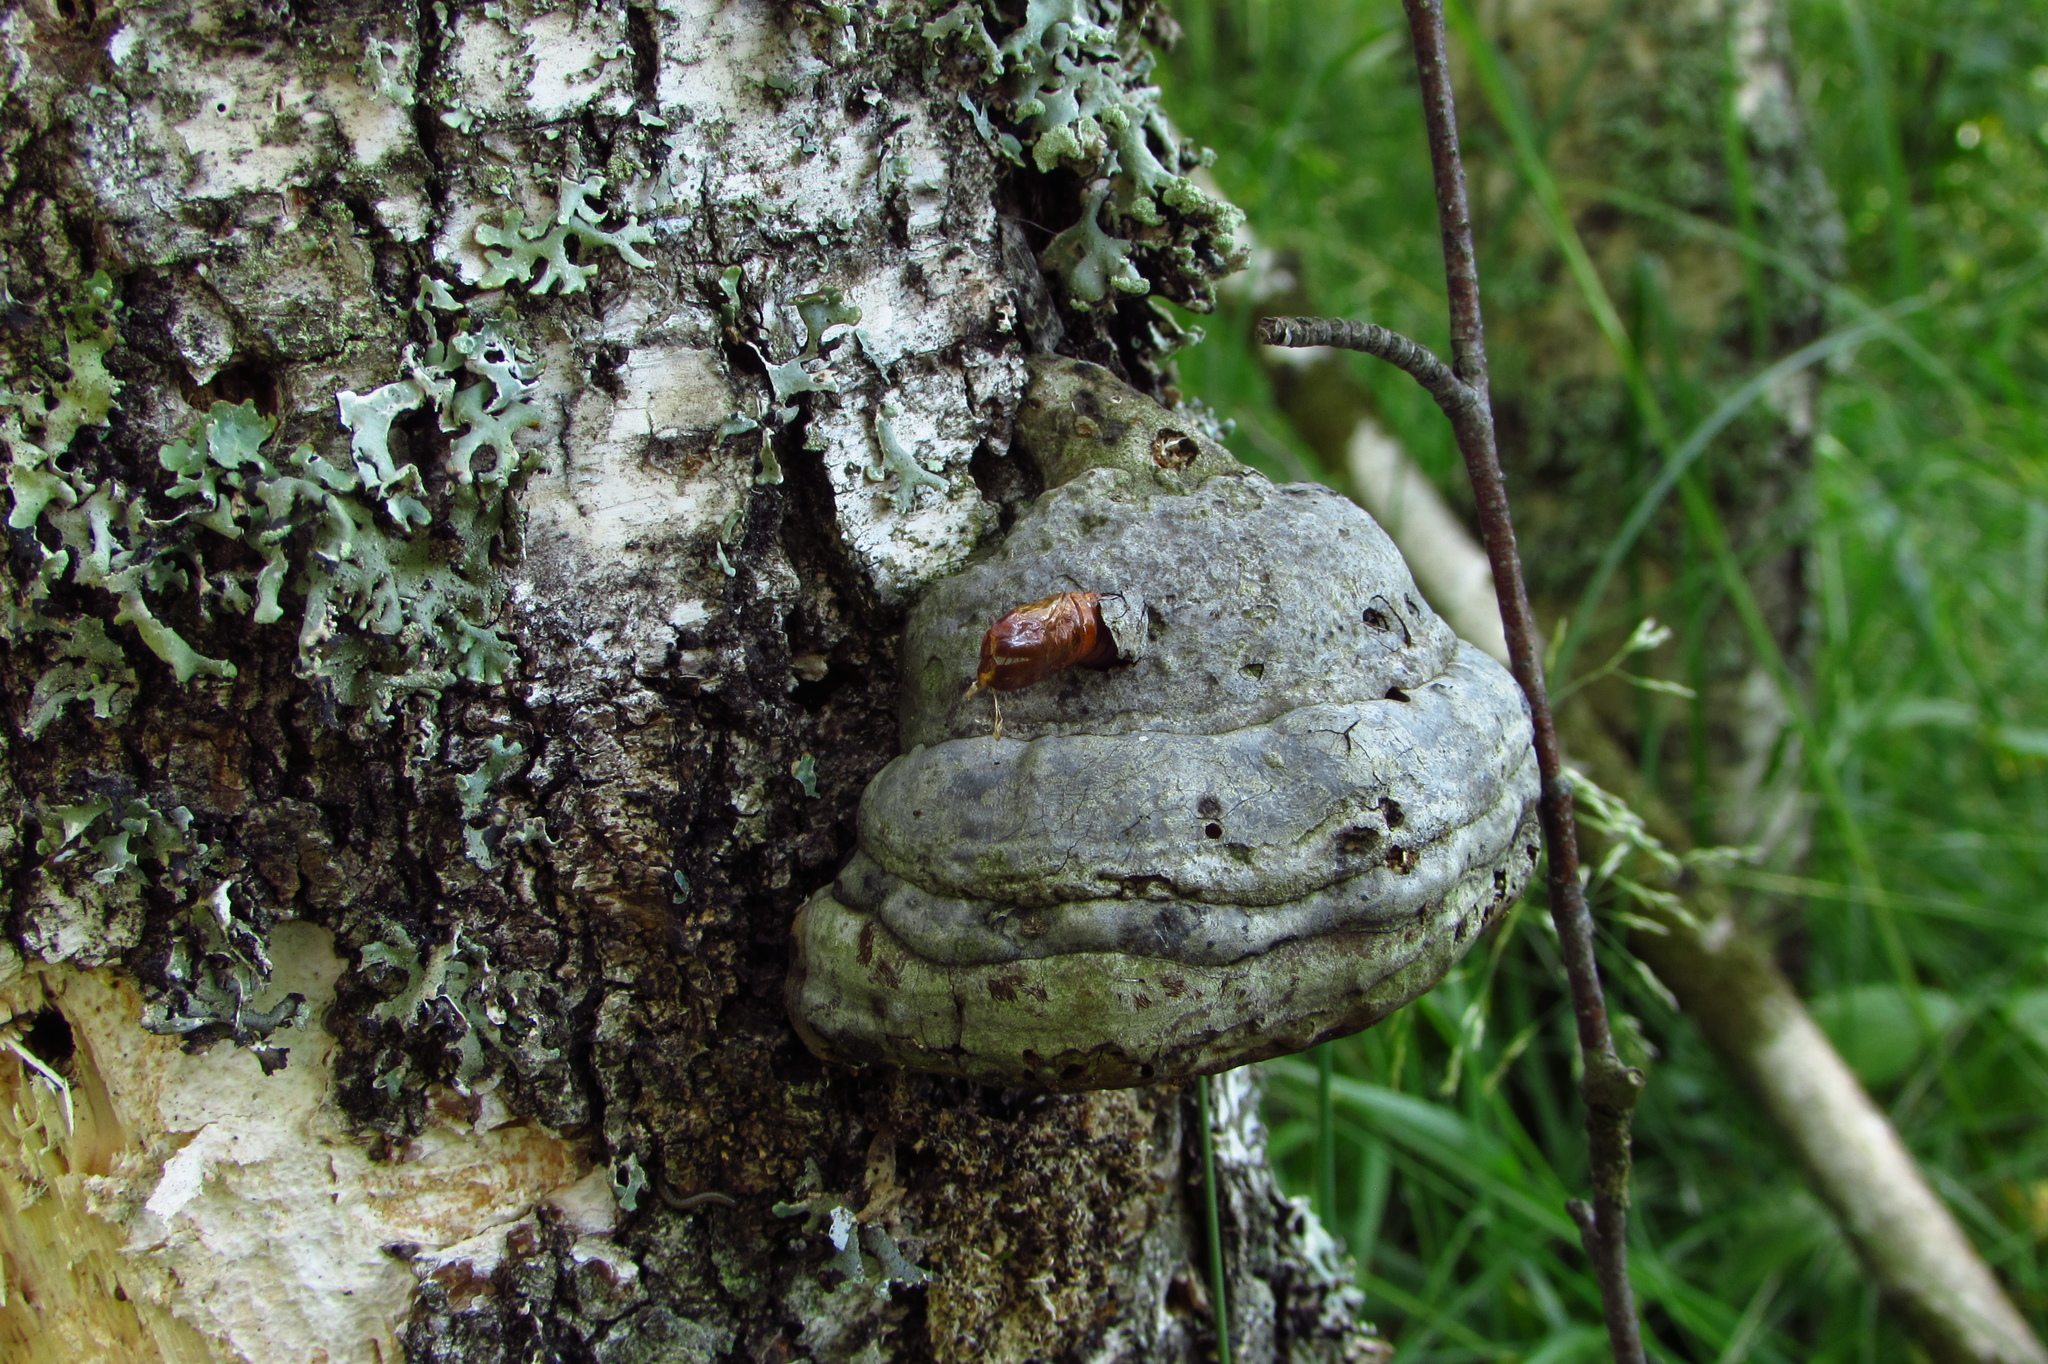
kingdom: Fungi
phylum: Basidiomycota
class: Agaricomycetes
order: Polyporales
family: Polyporaceae
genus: Fomes
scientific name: Fomes fomentarius
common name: Hoof fungus
